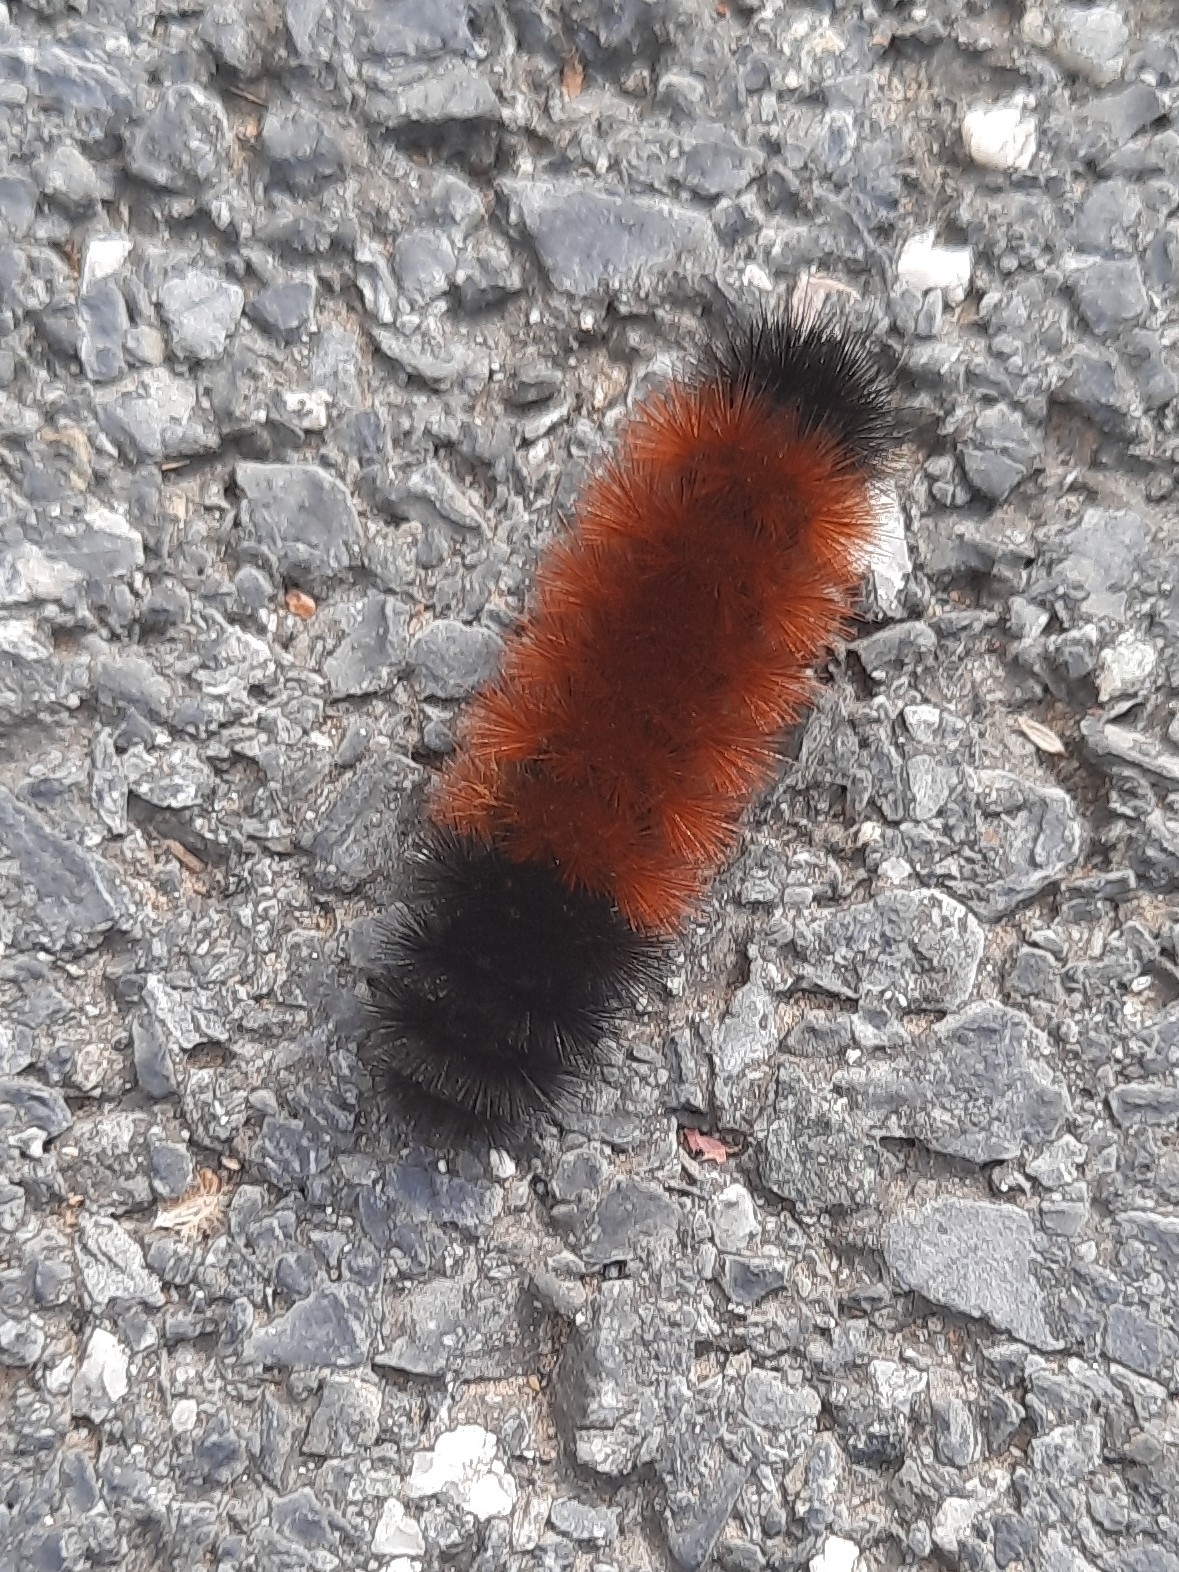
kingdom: Animalia
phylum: Arthropoda
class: Insecta
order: Lepidoptera
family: Erebidae
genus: Pyrrharctia
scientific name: Pyrrharctia isabella
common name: Isabella tiger moth
